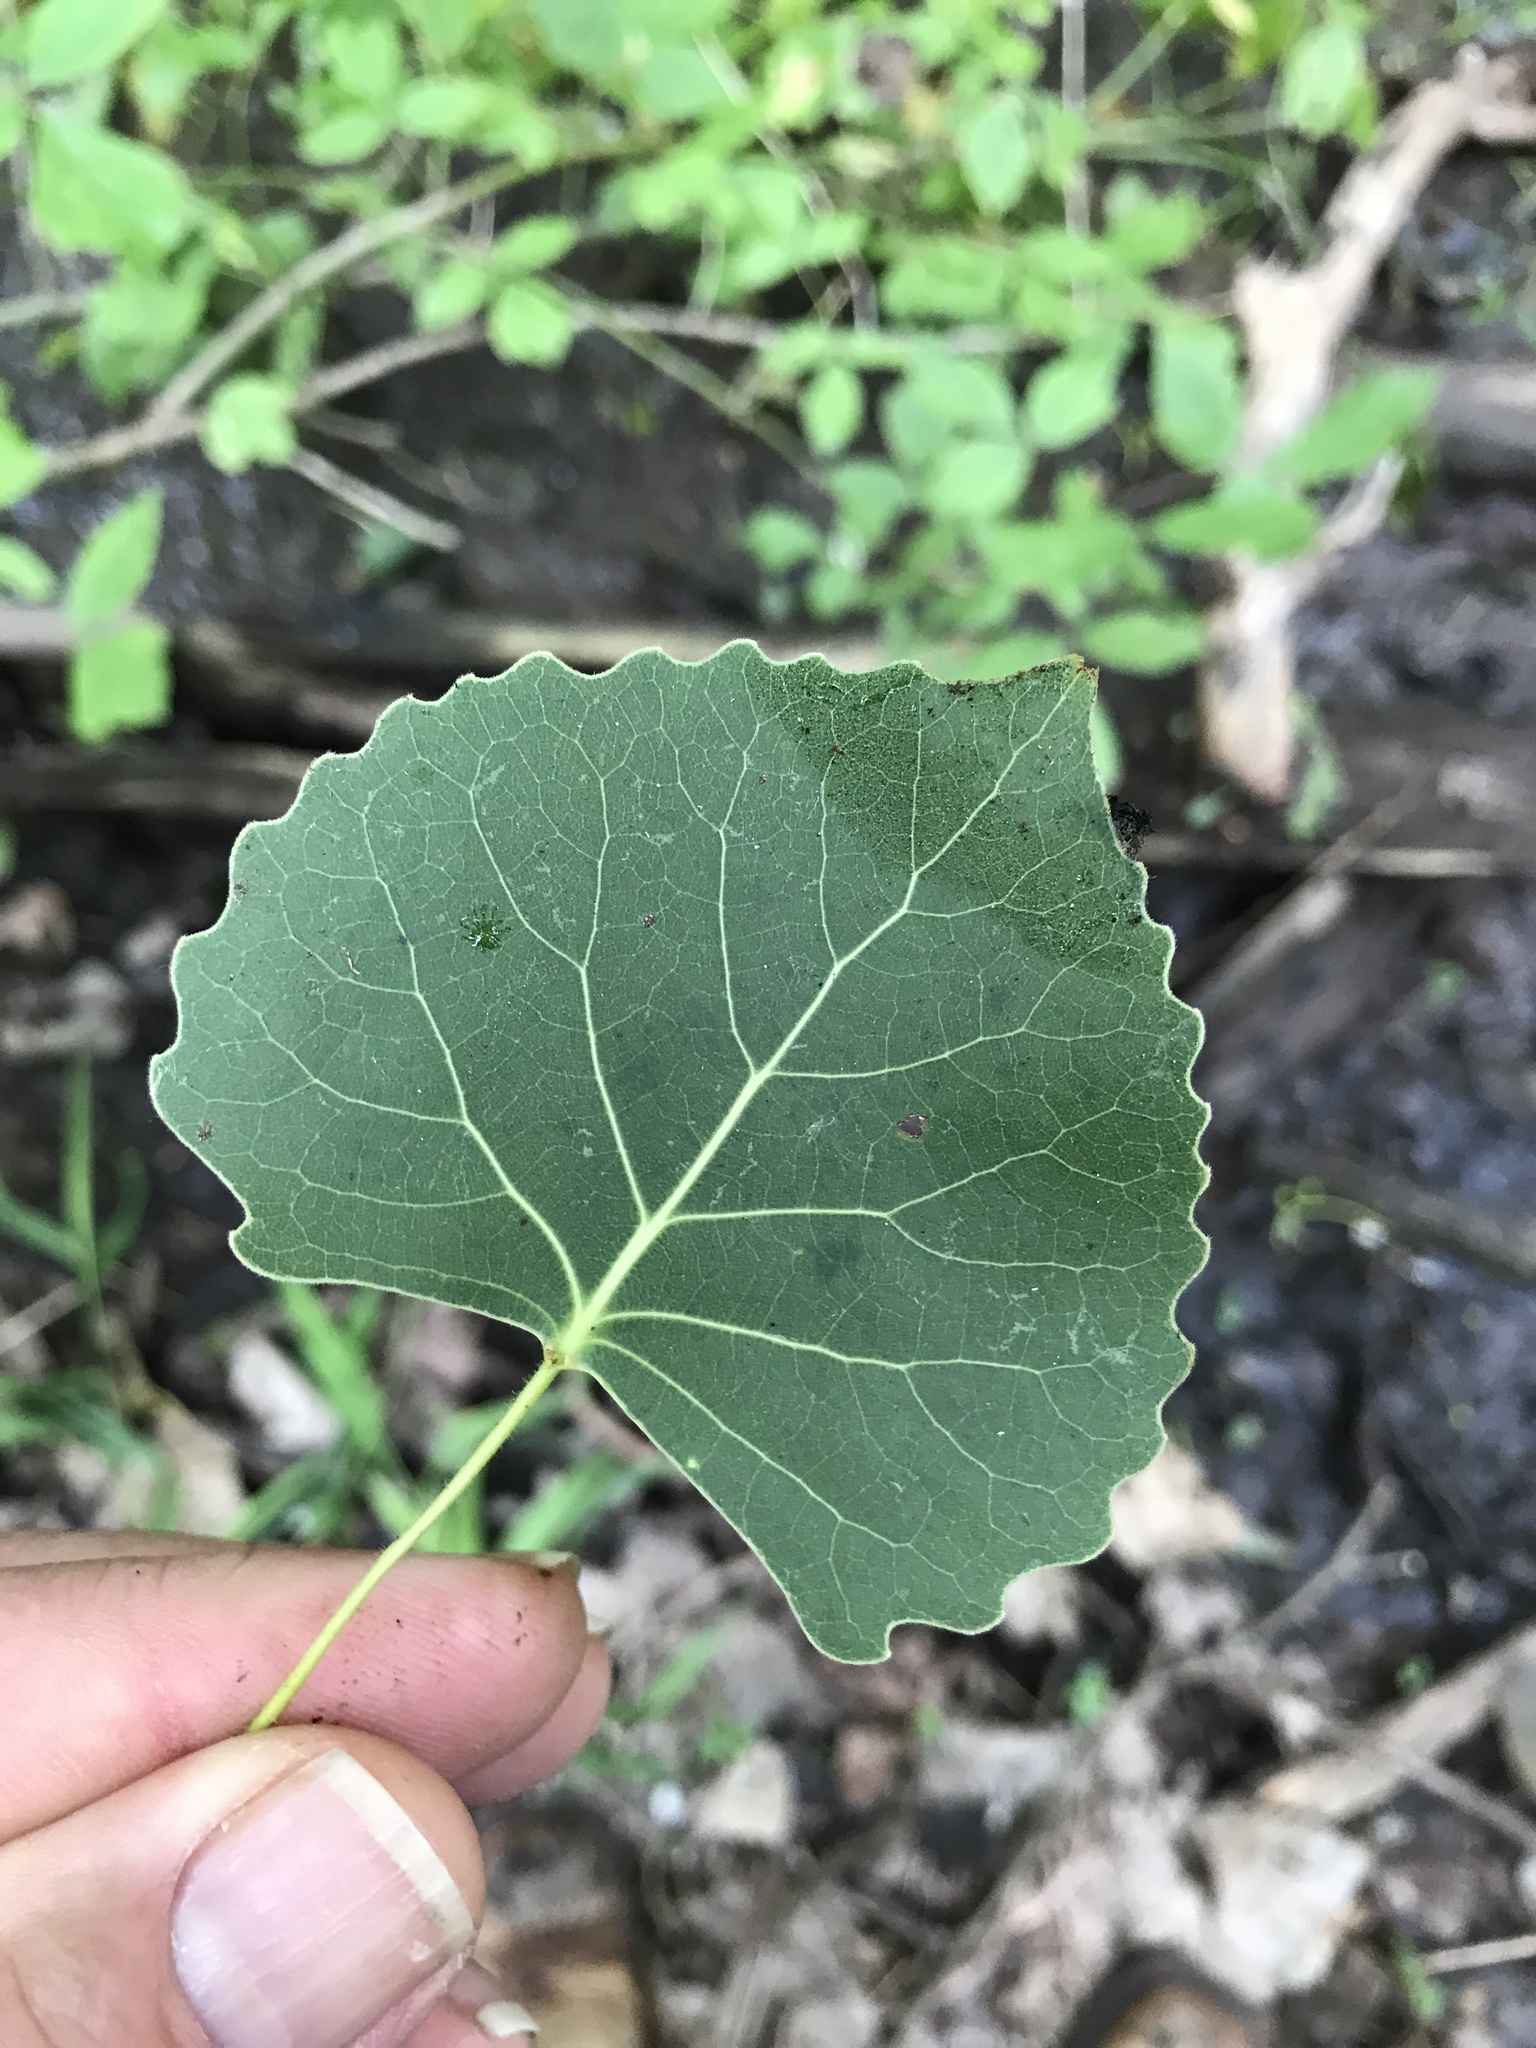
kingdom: Plantae
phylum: Tracheophyta
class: Magnoliopsida
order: Malpighiales
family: Salicaceae
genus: Populus
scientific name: Populus deltoides
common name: Eastern cottonwood
